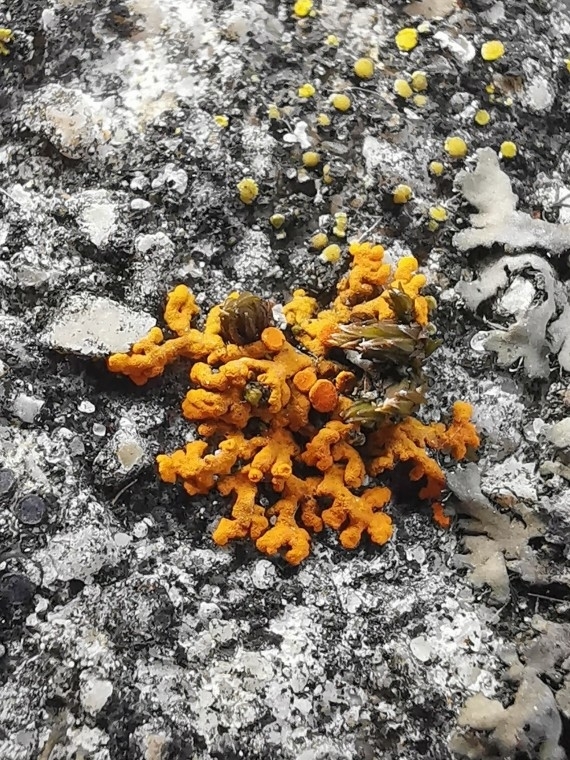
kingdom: Fungi
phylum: Ascomycota
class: Lecanoromycetes
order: Teloschistales
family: Teloschistaceae
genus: Xanthoria
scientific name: Xanthoria elegans
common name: Elegant sunburst lichen
